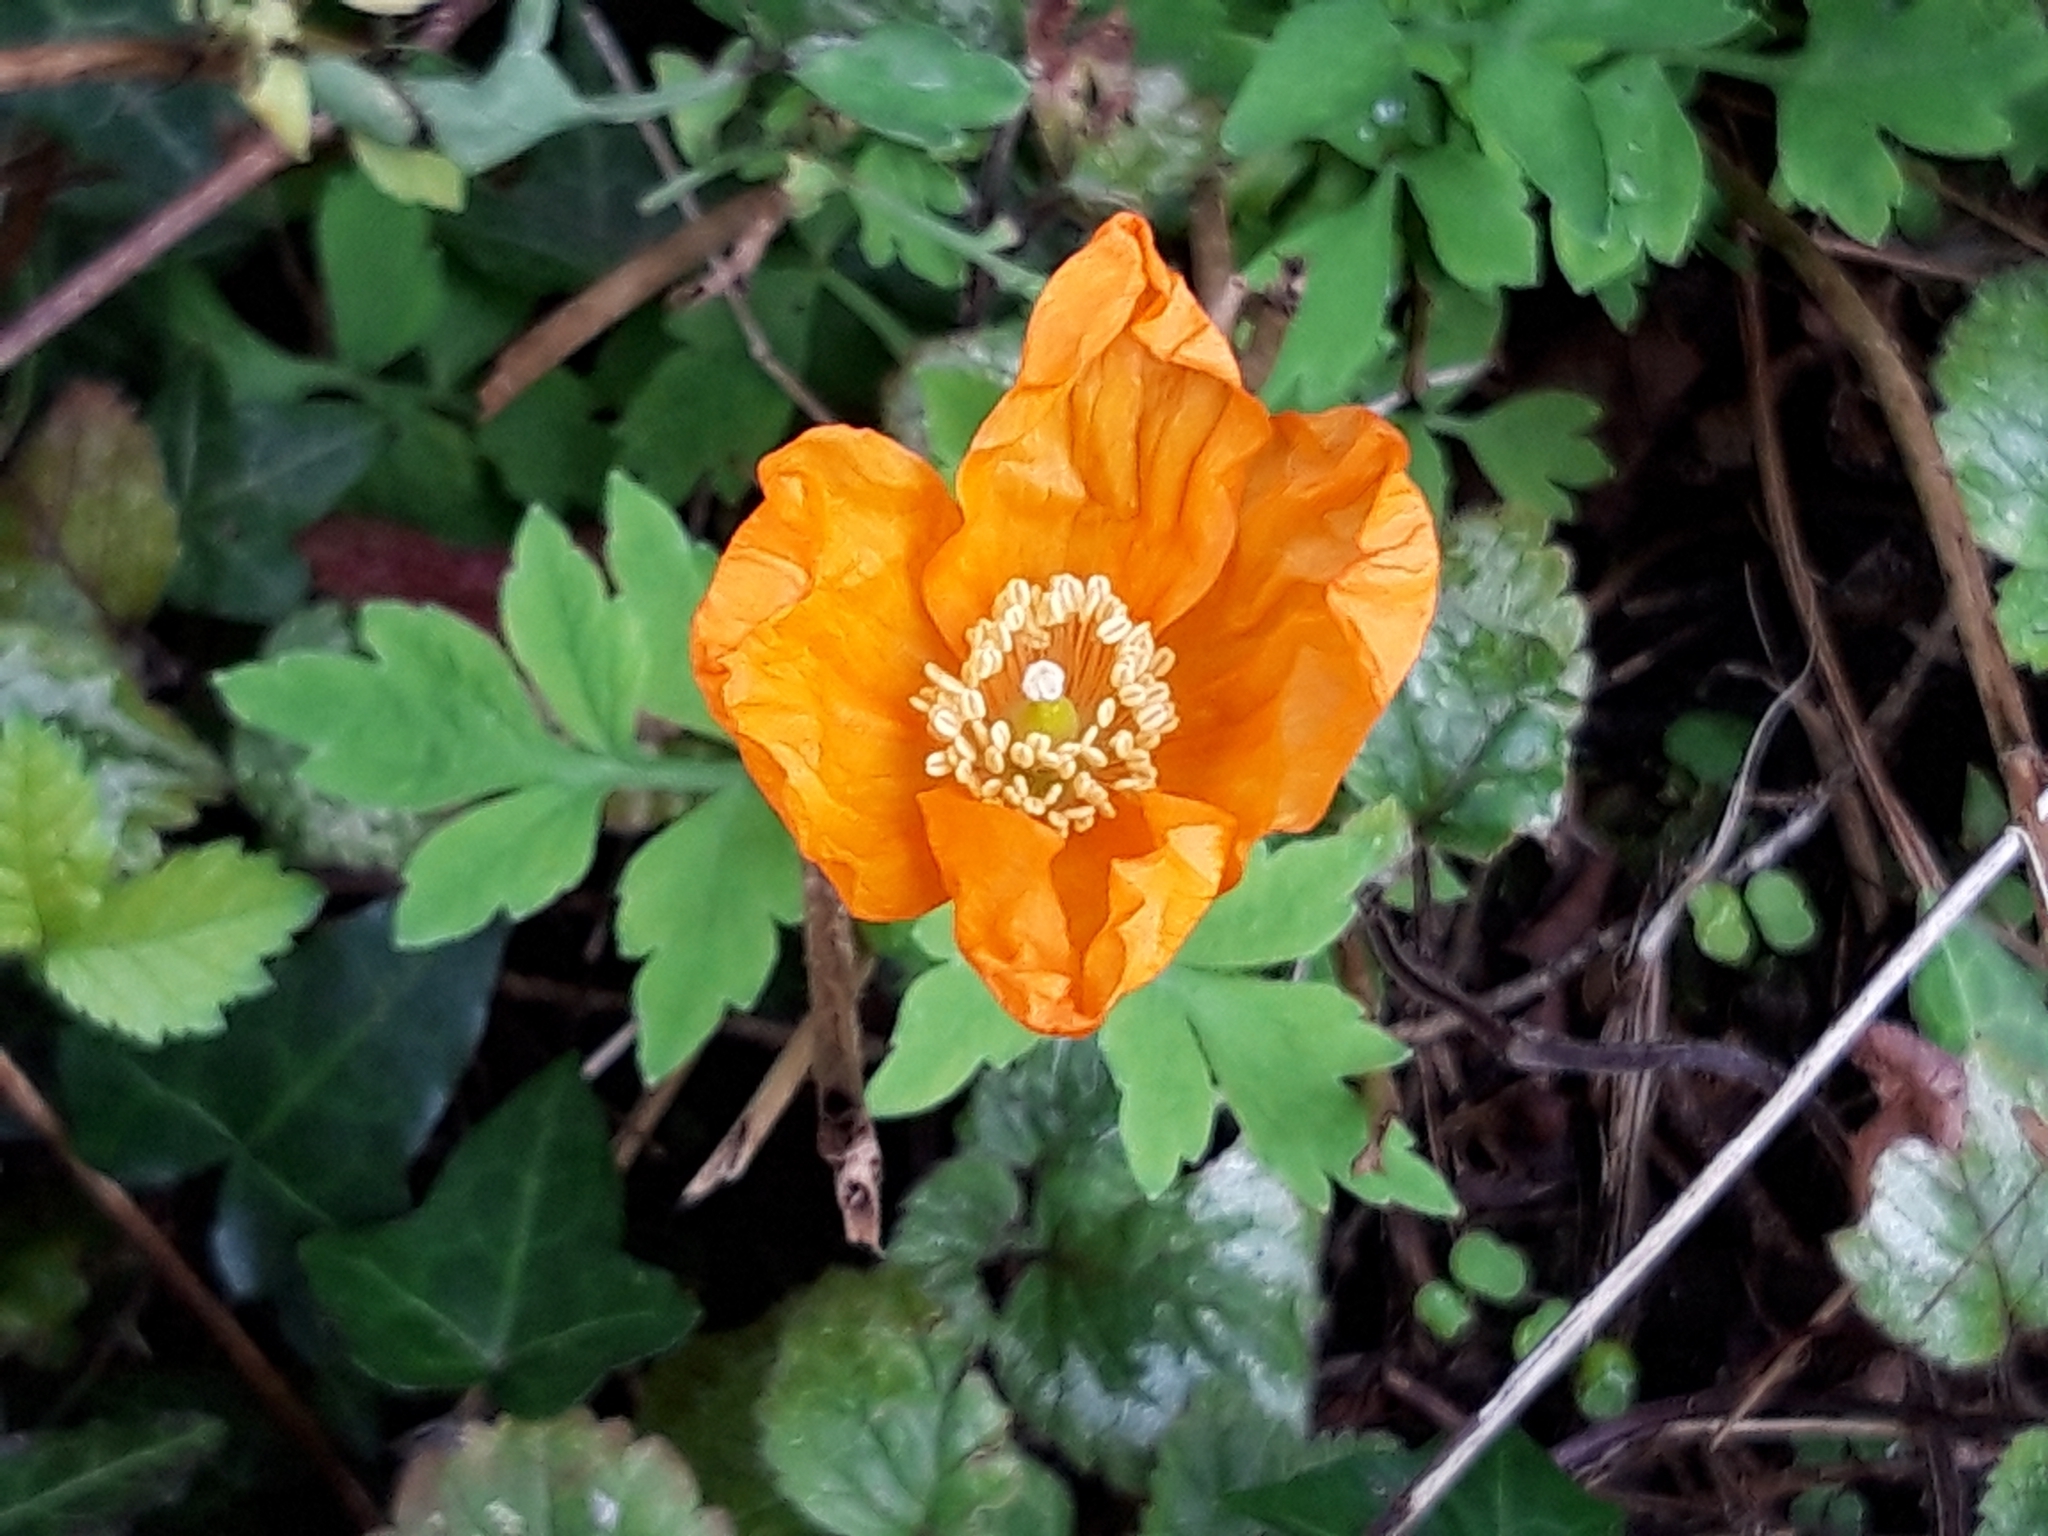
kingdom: Plantae
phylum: Tracheophyta
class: Magnoliopsida
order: Ranunculales
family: Papaveraceae
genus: Papaver
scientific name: Papaver cambricum
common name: Poppy
